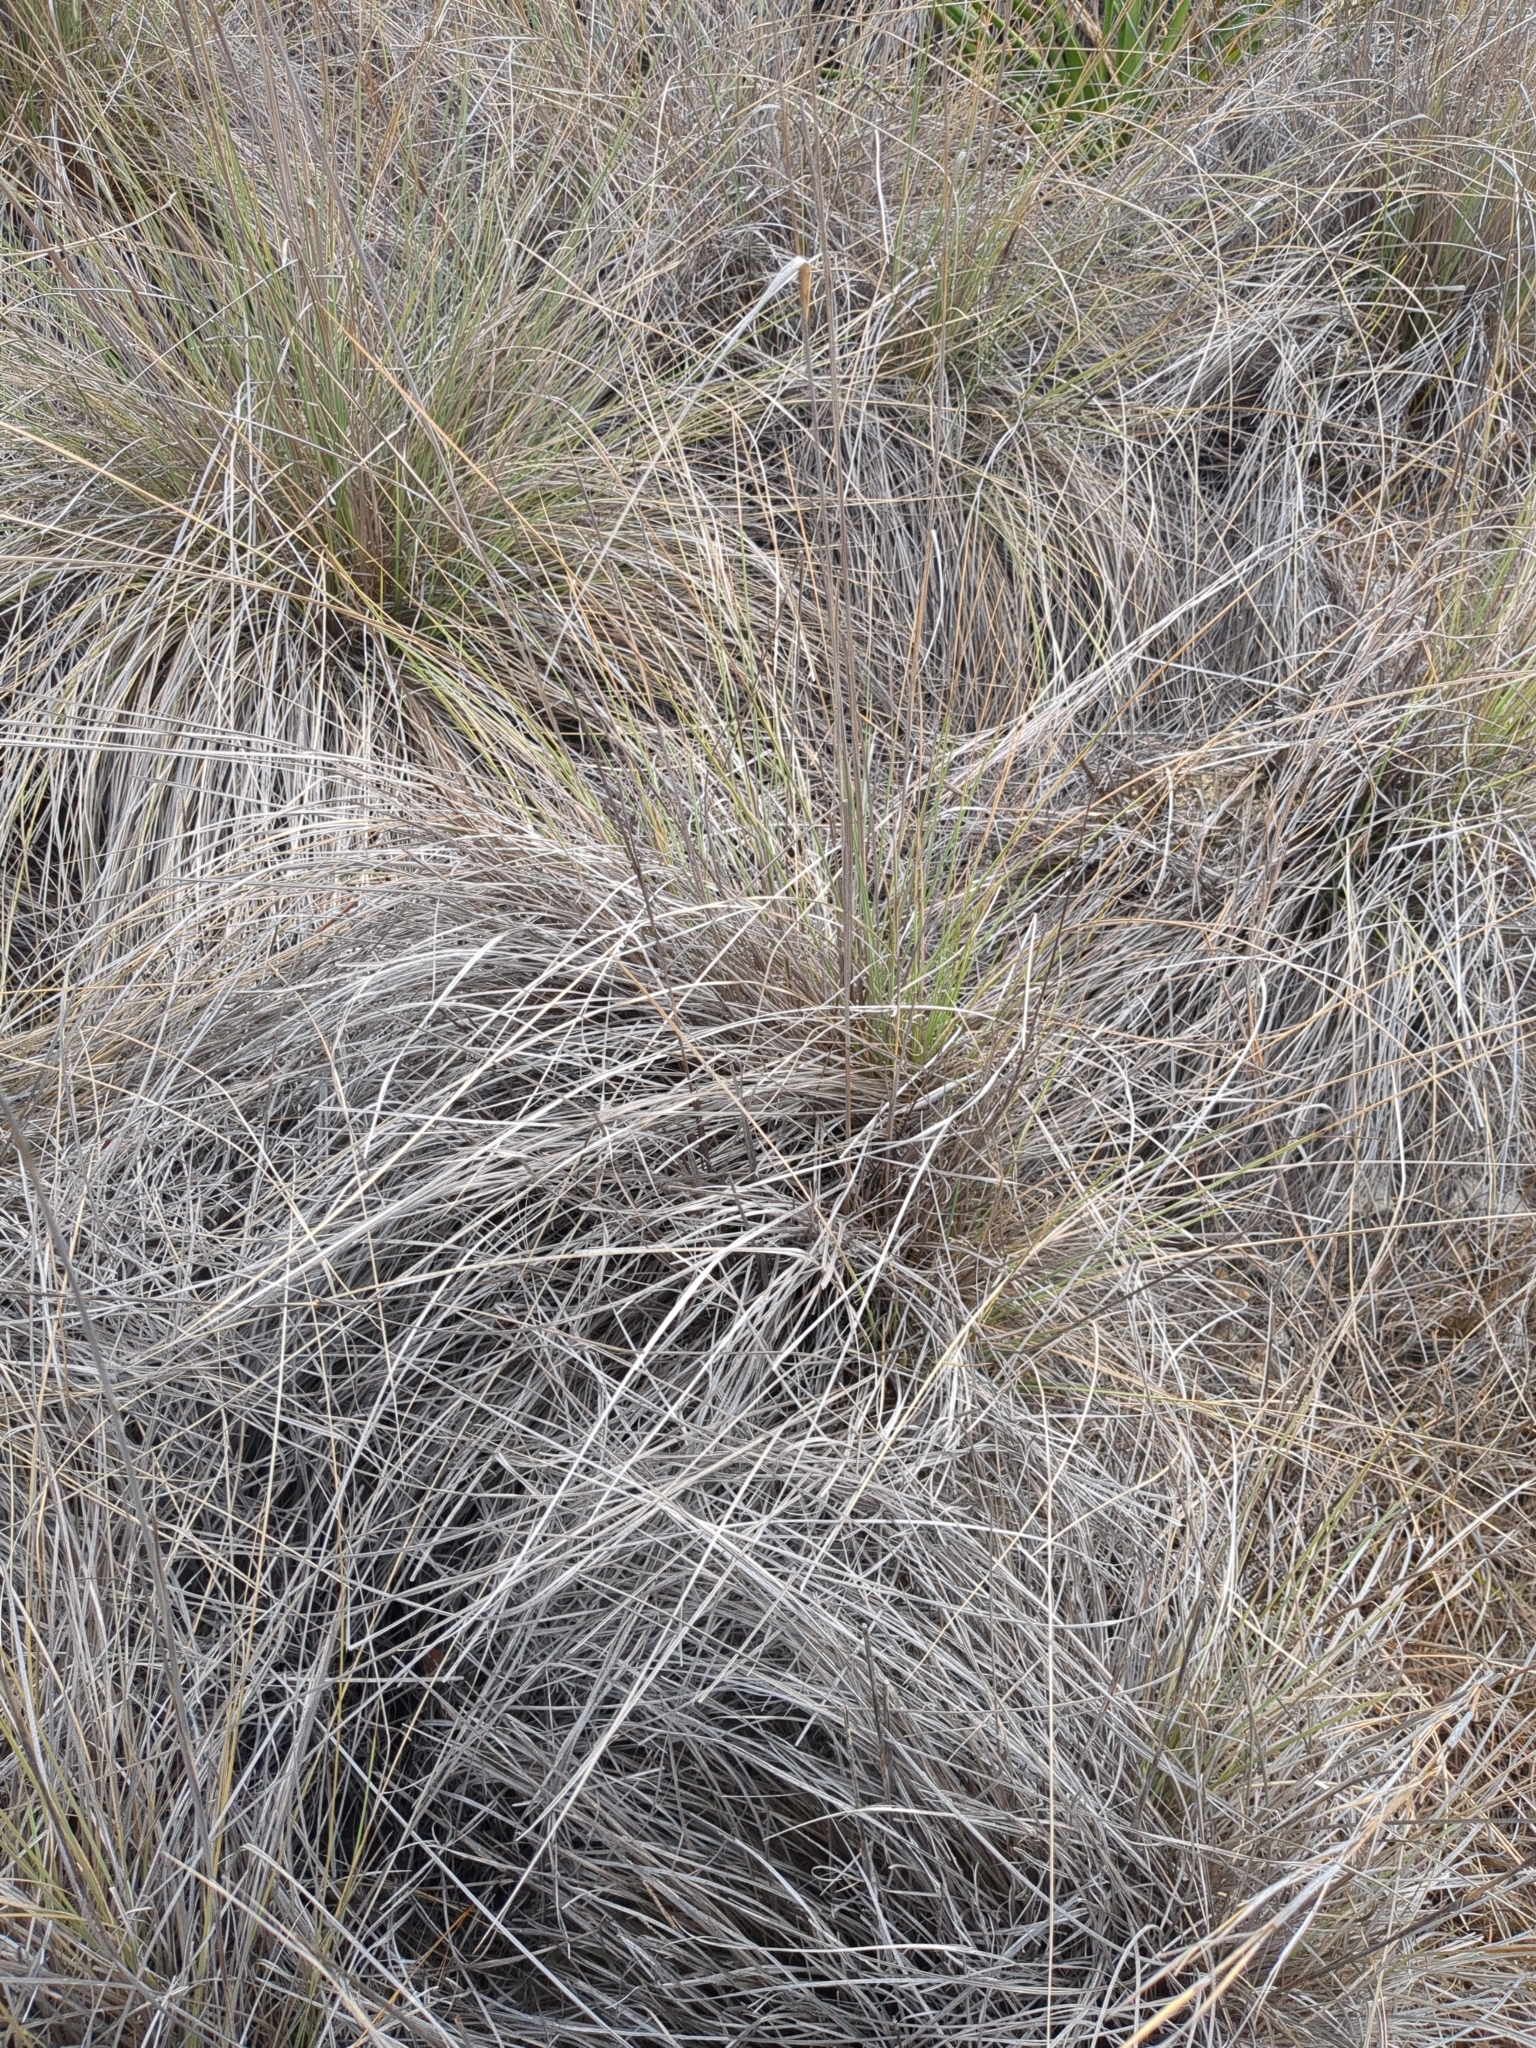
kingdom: Plantae
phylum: Tracheophyta
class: Liliopsida
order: Poales
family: Poaceae
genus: Muhlenbergia
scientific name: Muhlenbergia lindheimeri
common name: Lindheimer's muhly
